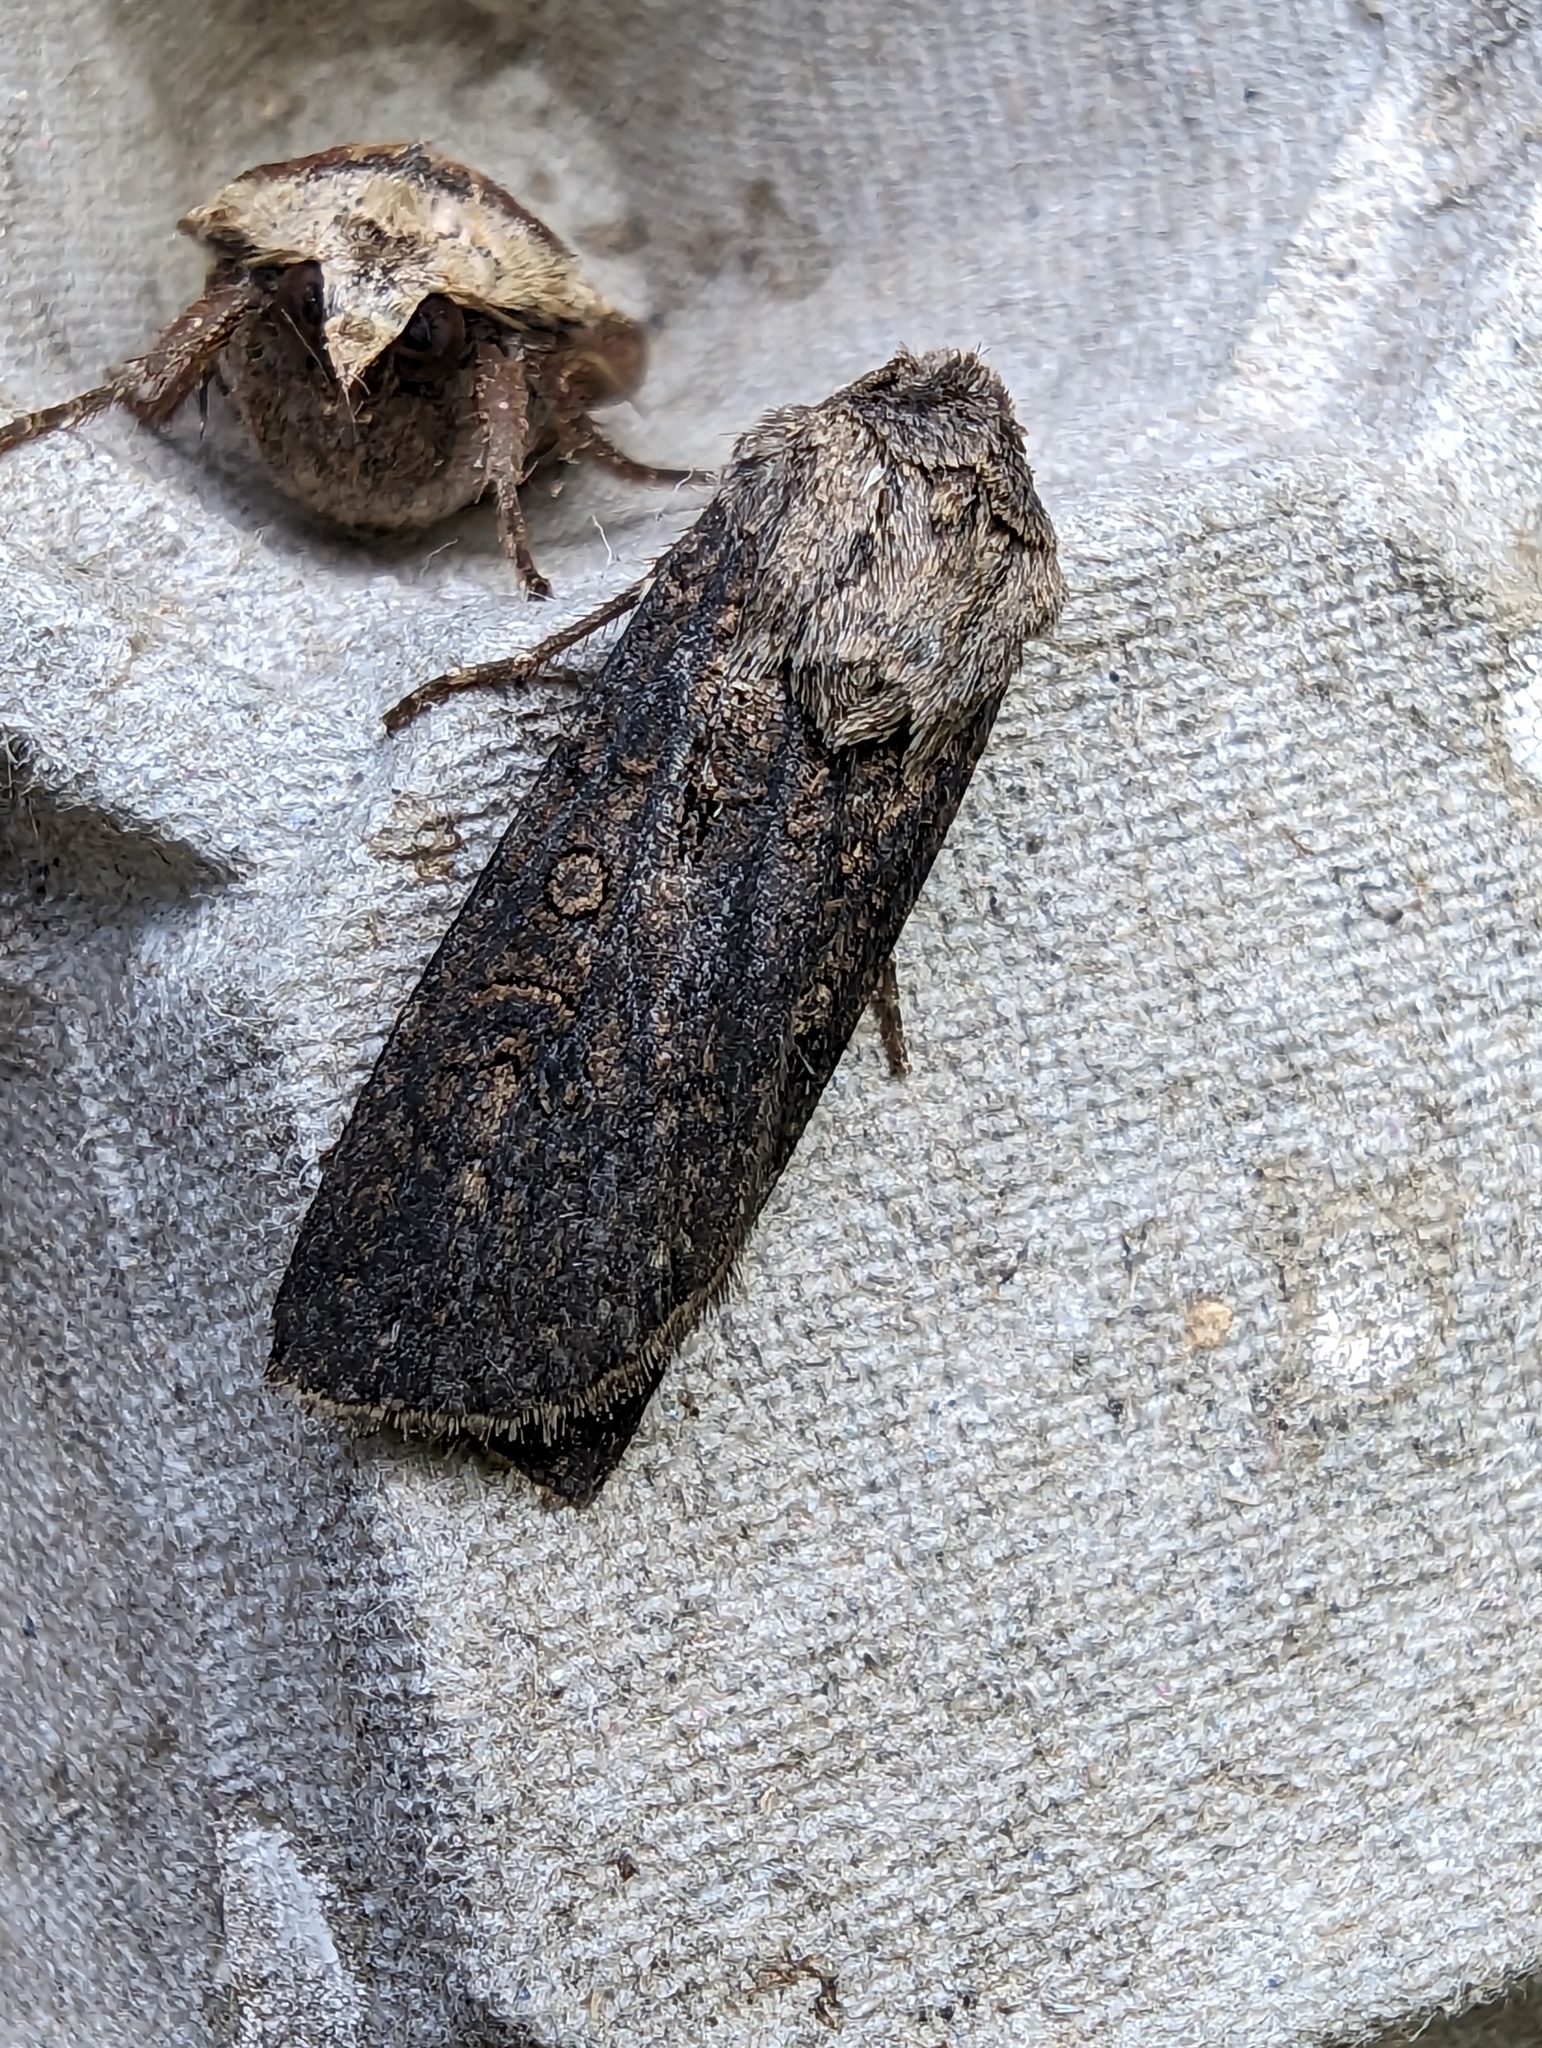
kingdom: Animalia
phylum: Arthropoda
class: Insecta
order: Lepidoptera
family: Noctuidae
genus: Agrotis
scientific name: Agrotis segetum
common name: Turnip moth
